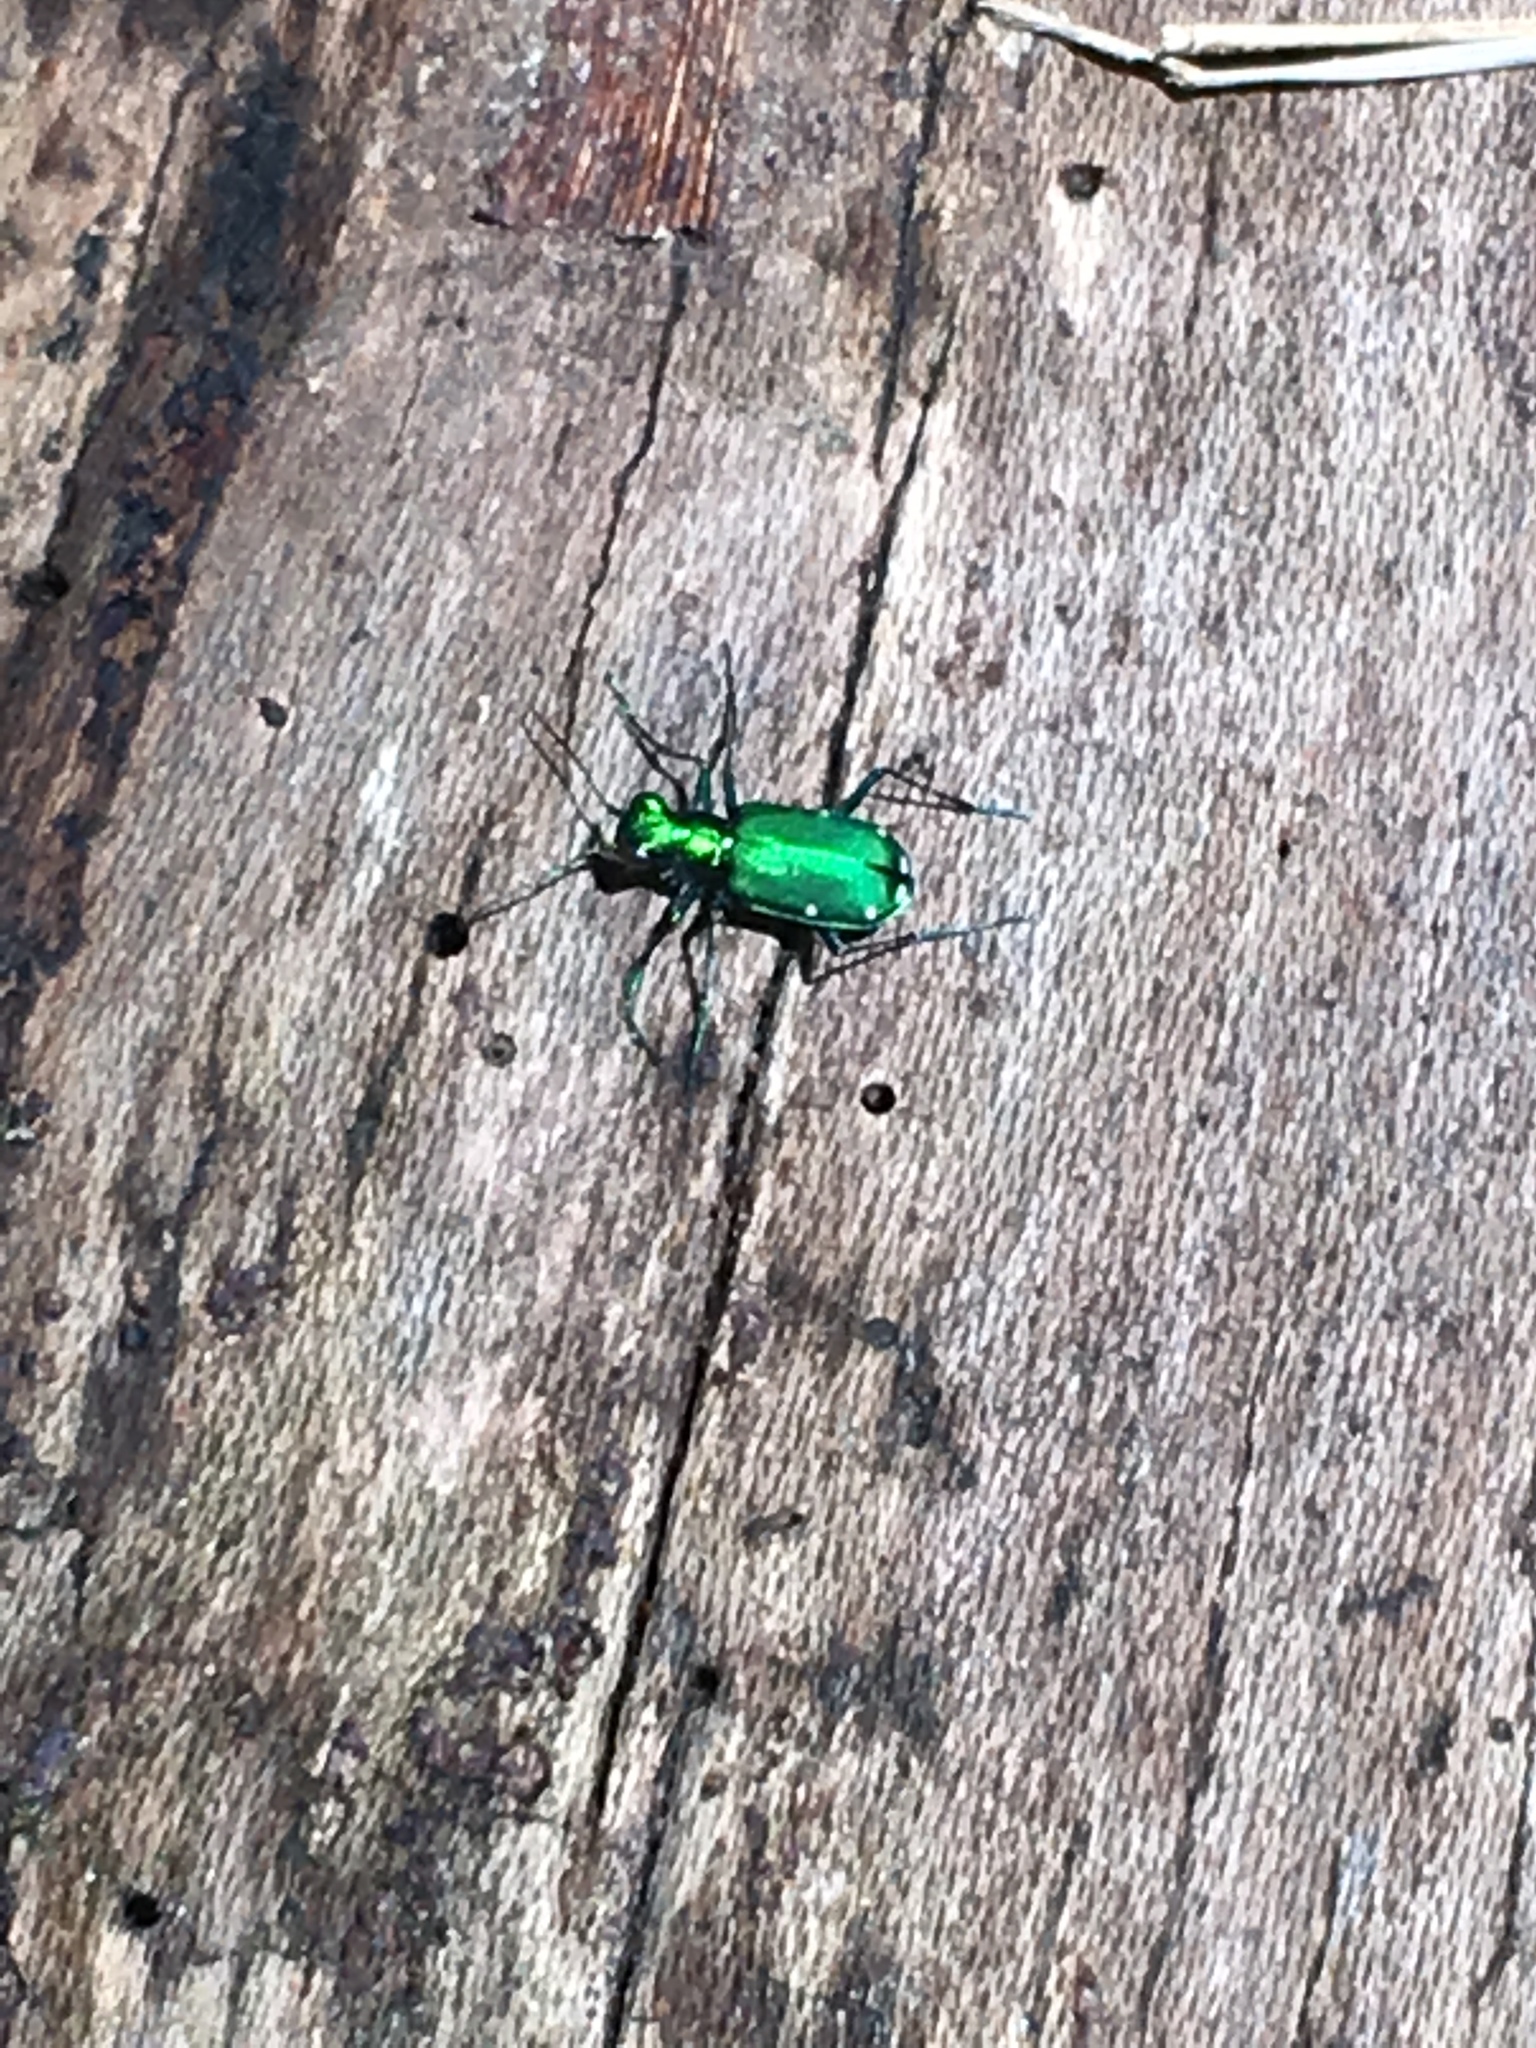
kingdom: Animalia
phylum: Arthropoda
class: Insecta
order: Coleoptera
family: Carabidae
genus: Cicindela
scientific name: Cicindela sexguttata
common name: Six-spotted tiger beetle
